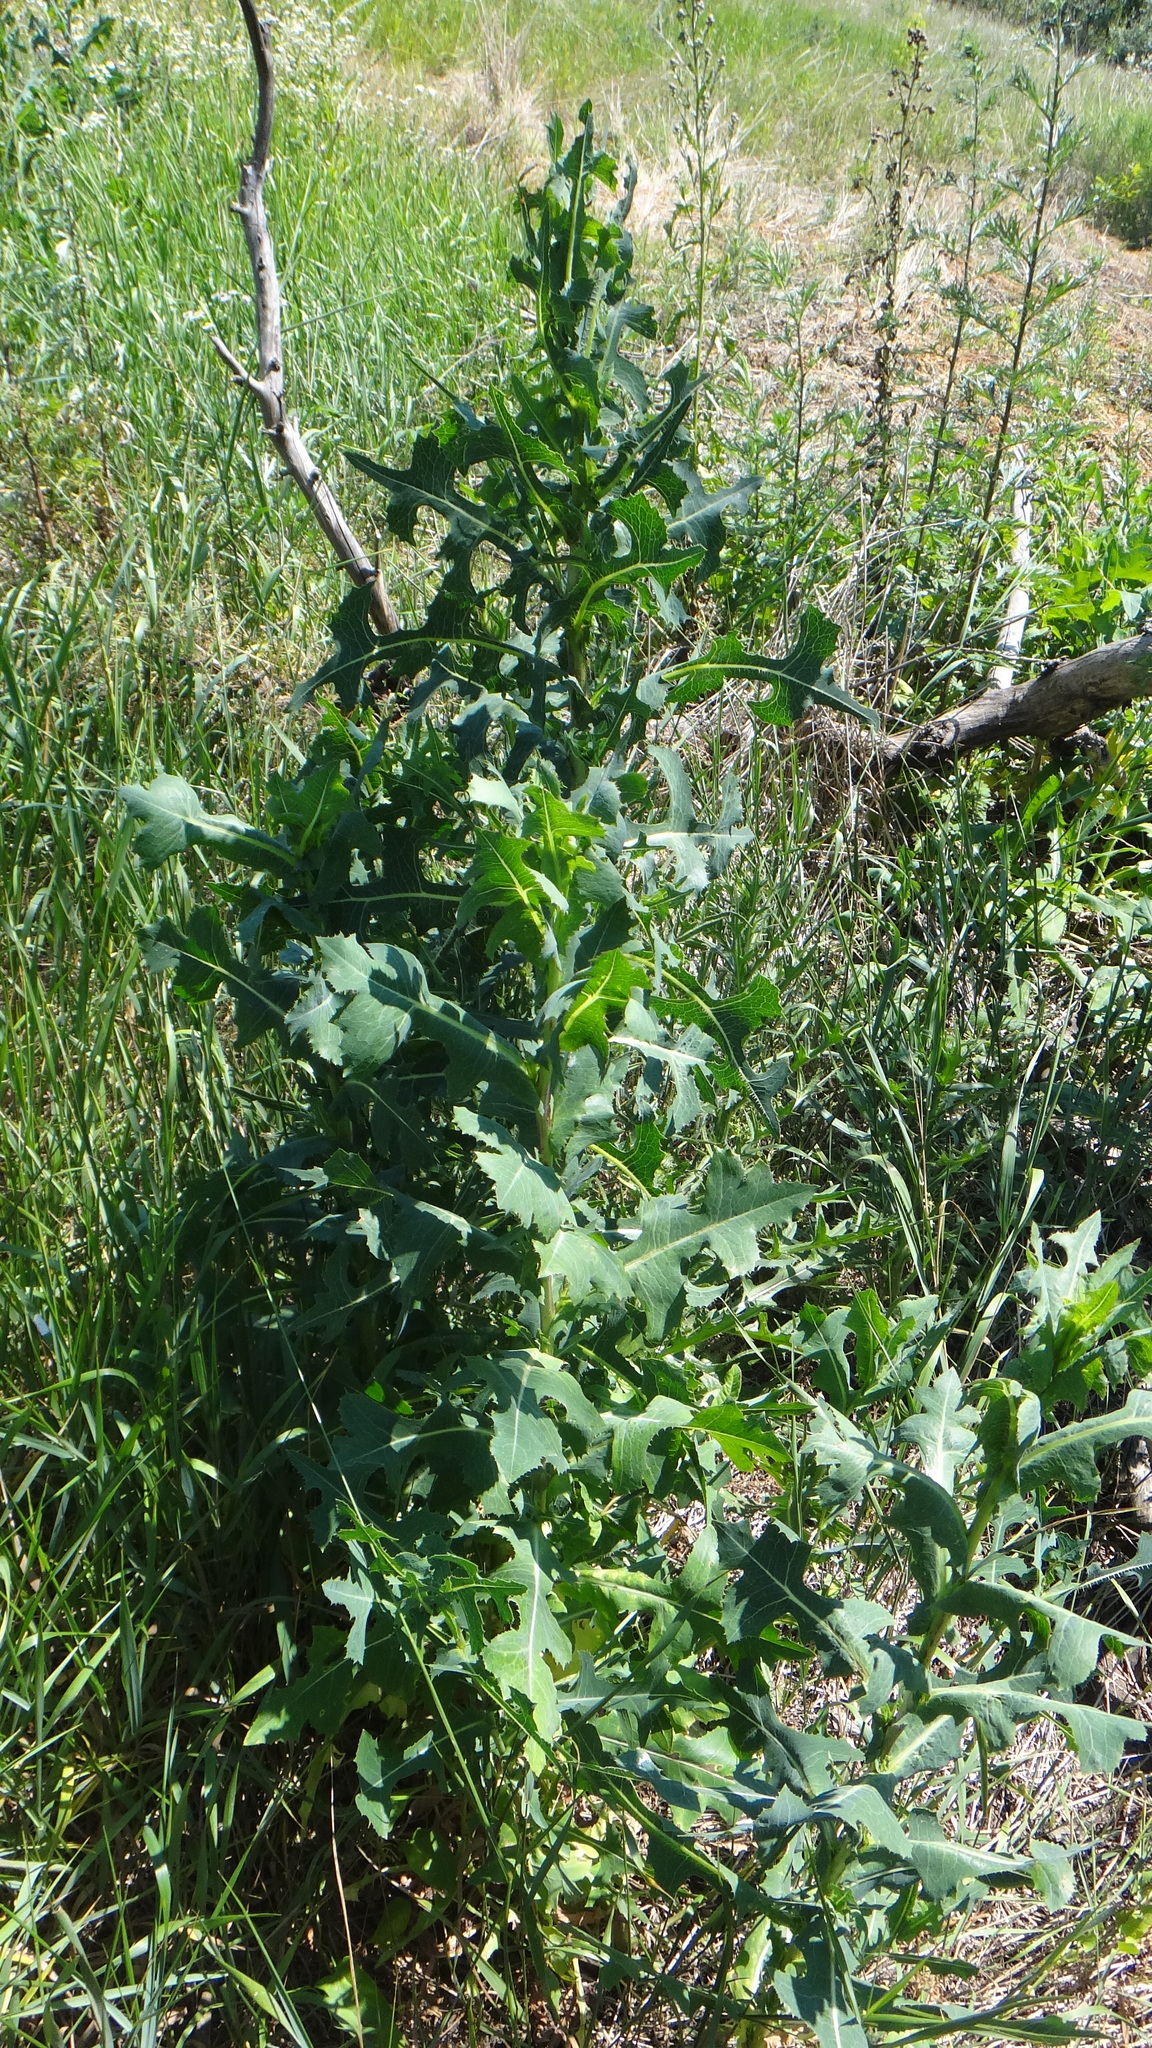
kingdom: Plantae
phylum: Tracheophyta
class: Magnoliopsida
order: Asterales
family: Asteraceae
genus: Lactuca
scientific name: Lactuca serriola
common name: Prickly lettuce
